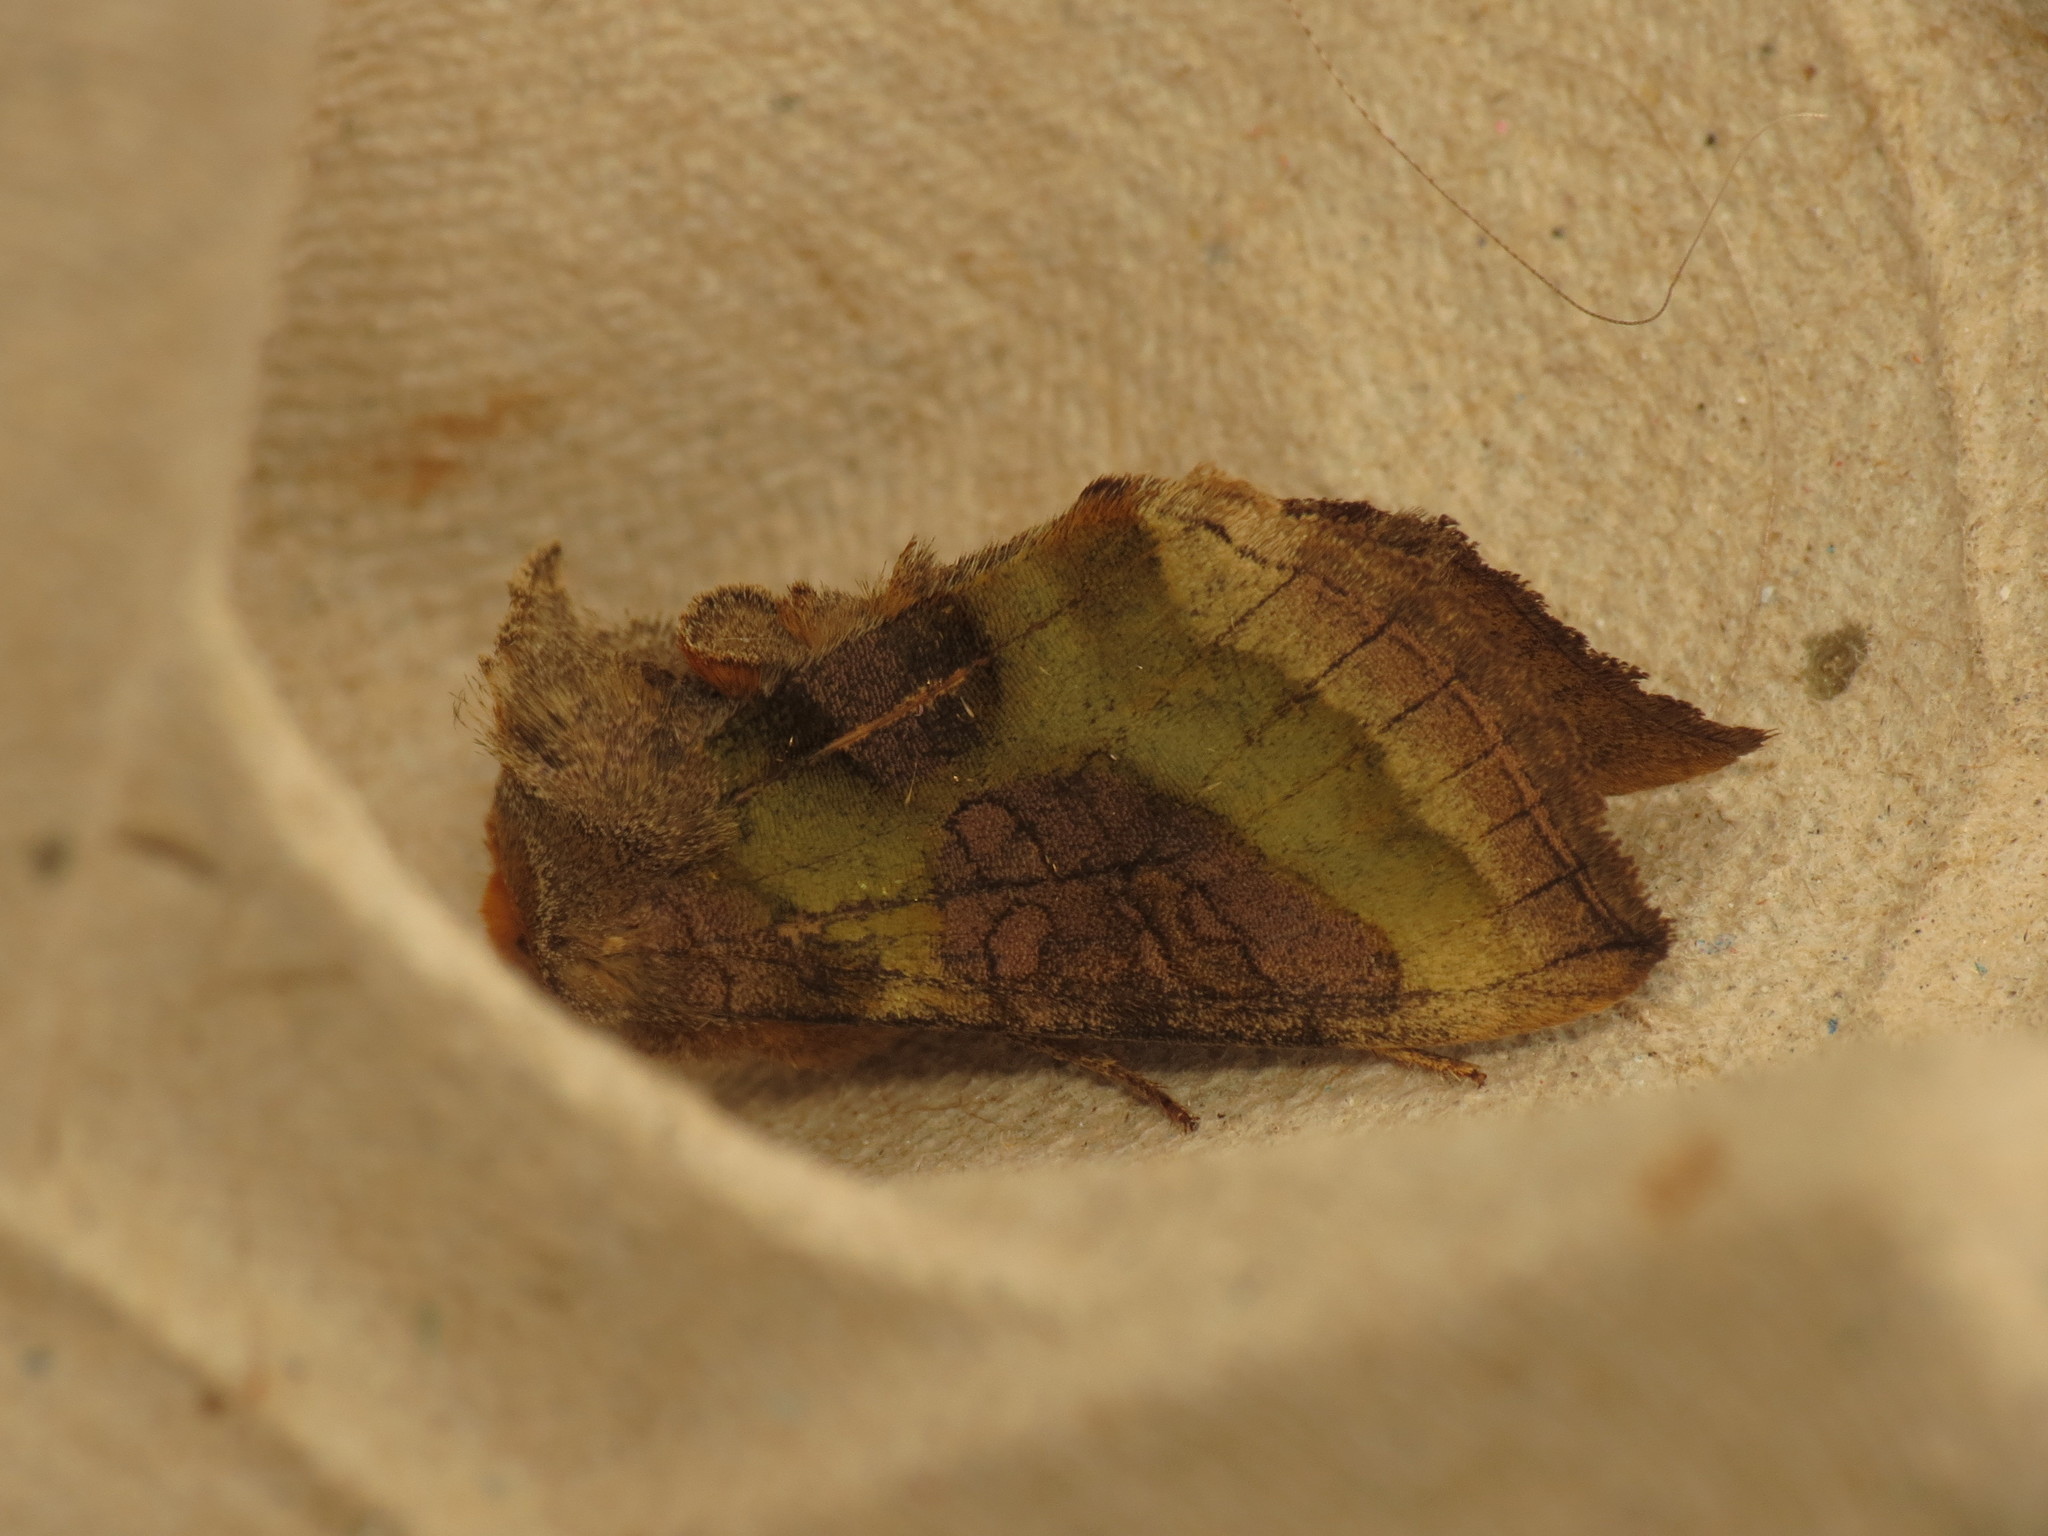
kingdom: Animalia
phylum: Arthropoda
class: Insecta
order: Lepidoptera
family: Noctuidae
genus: Diachrysia
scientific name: Diachrysia chrysitis
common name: Burnished brass
